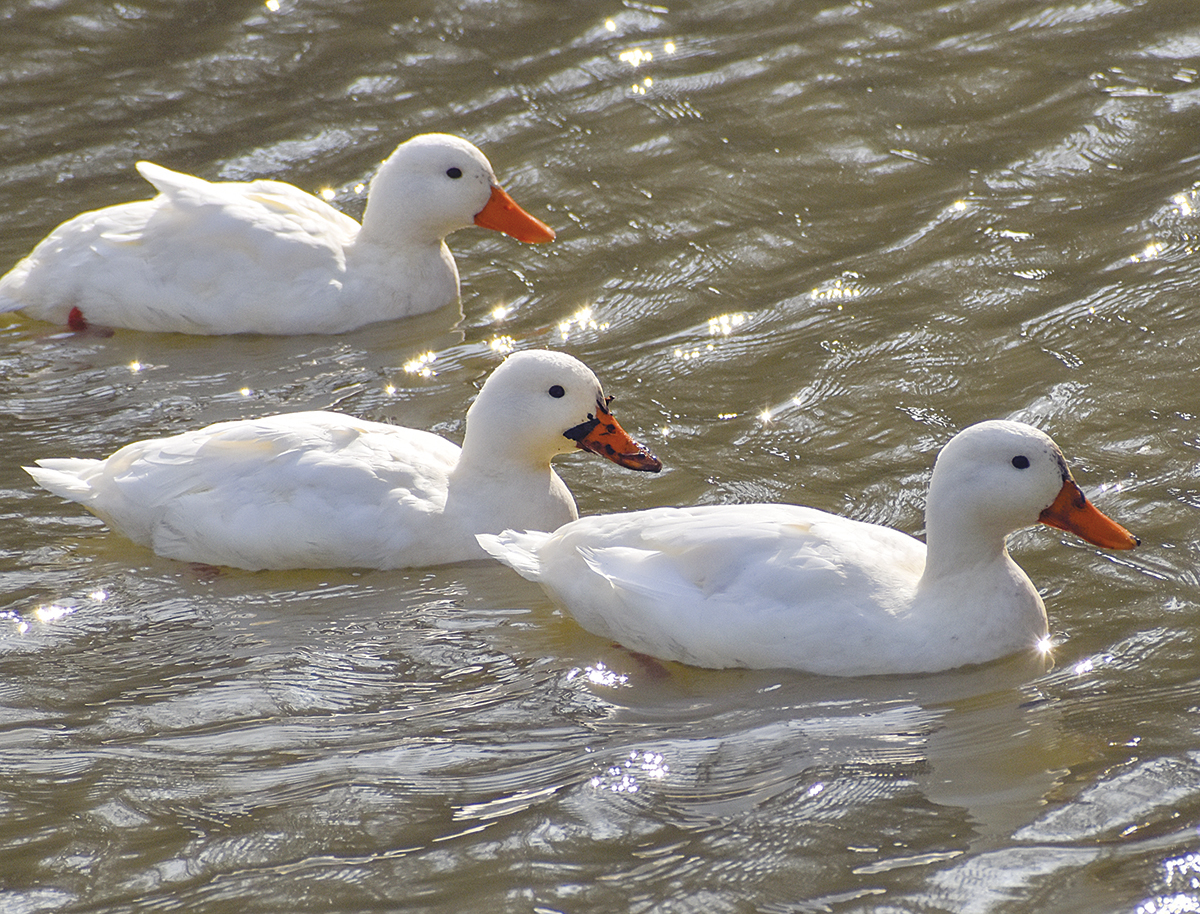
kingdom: Animalia
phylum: Chordata
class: Aves
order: Anseriformes
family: Anatidae
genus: Anas
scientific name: Anas platyrhynchos
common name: Mallard
